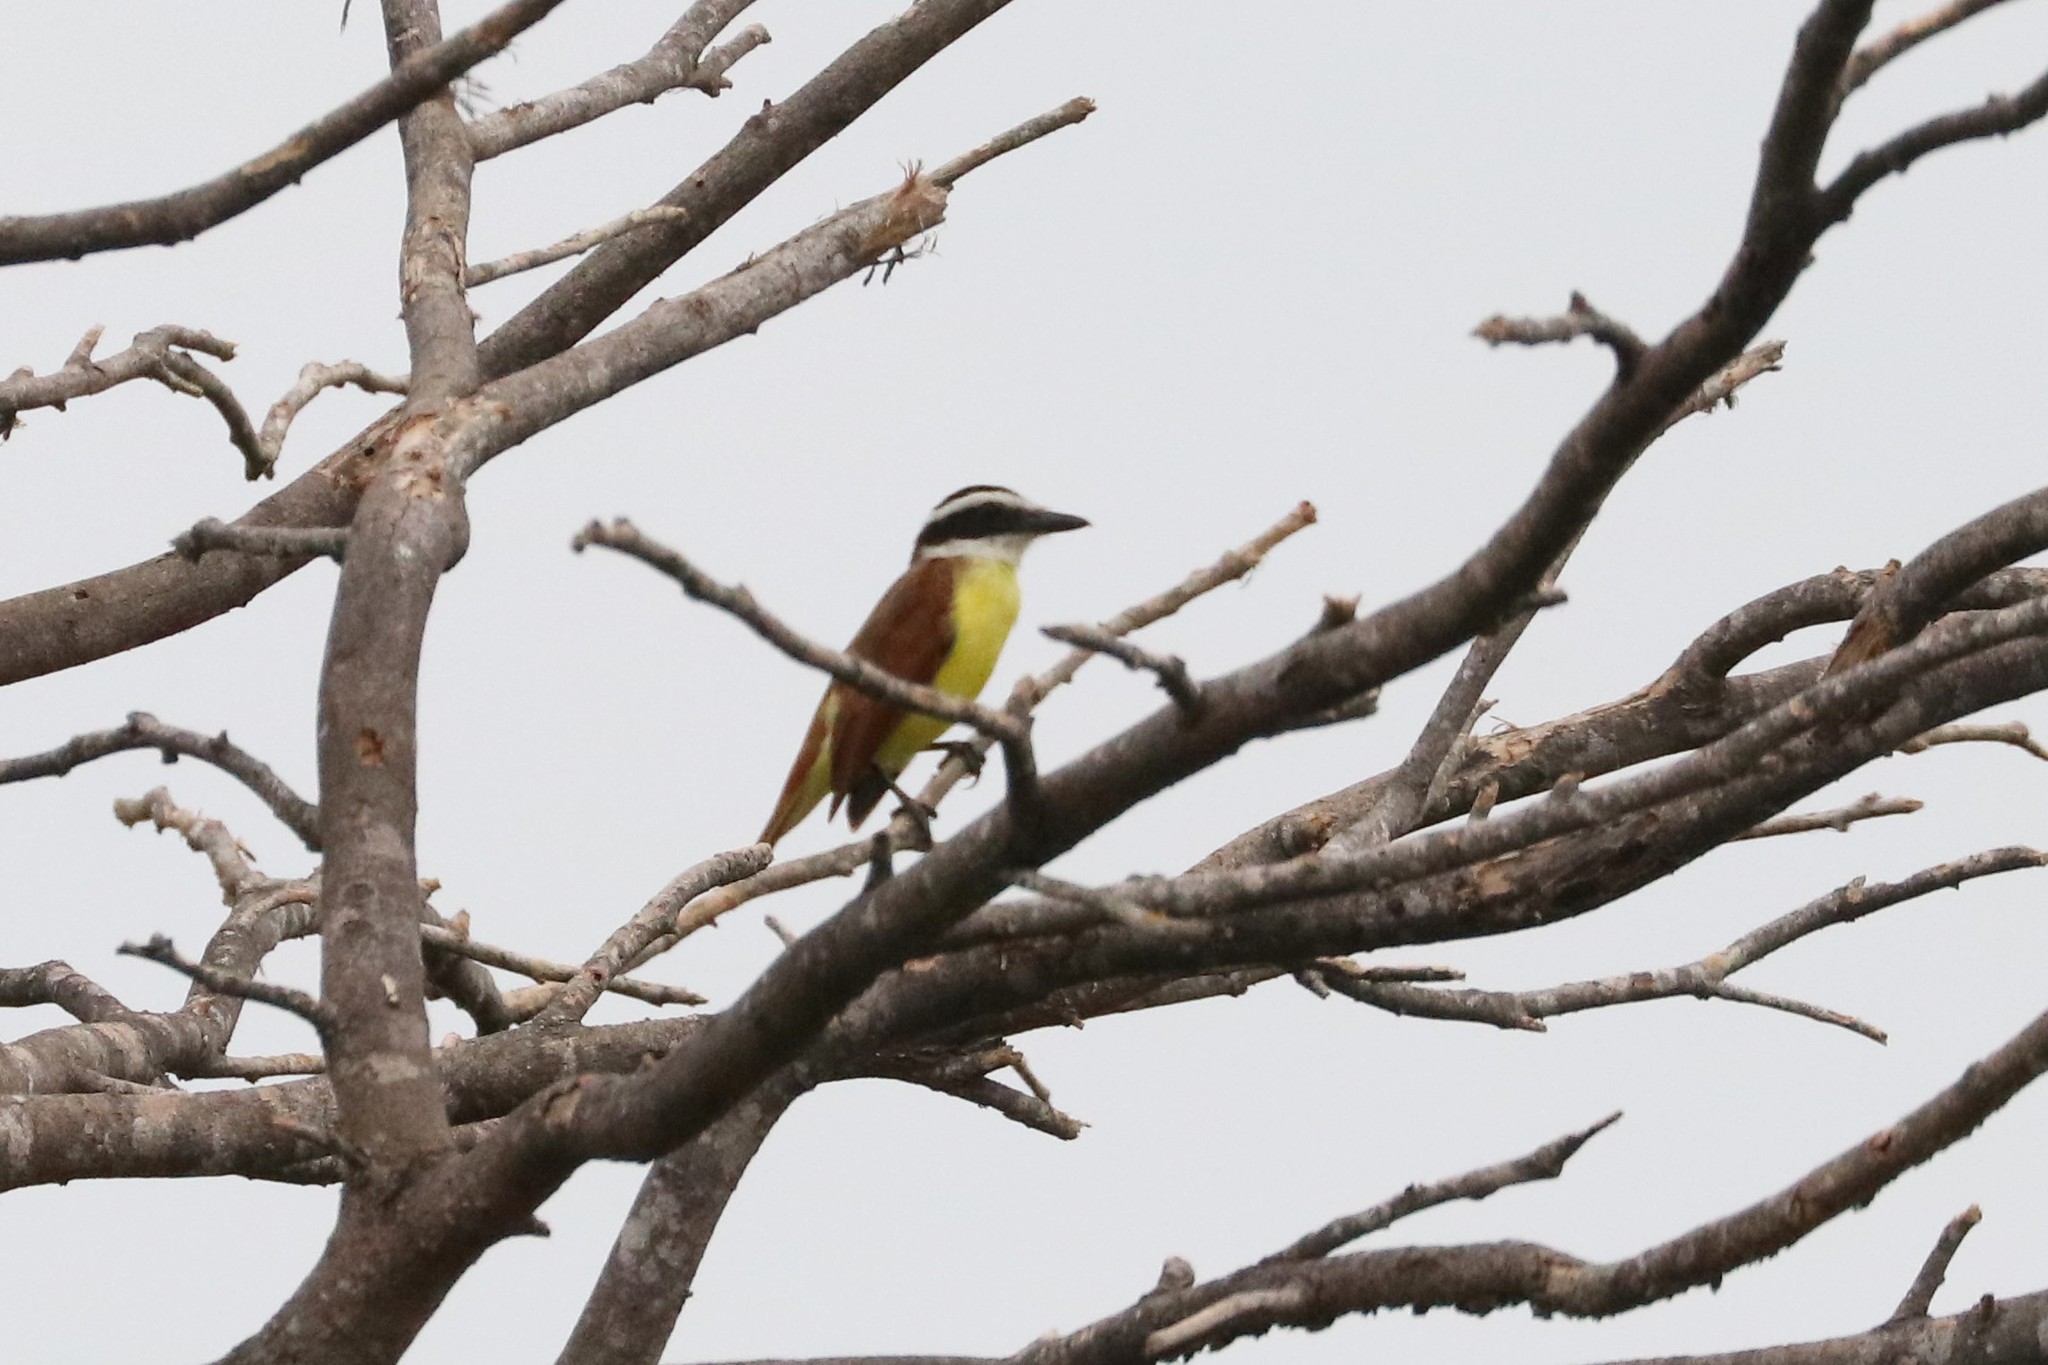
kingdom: Animalia
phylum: Chordata
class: Aves
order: Passeriformes
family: Tyrannidae
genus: Pitangus
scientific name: Pitangus sulphuratus
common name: Great kiskadee
